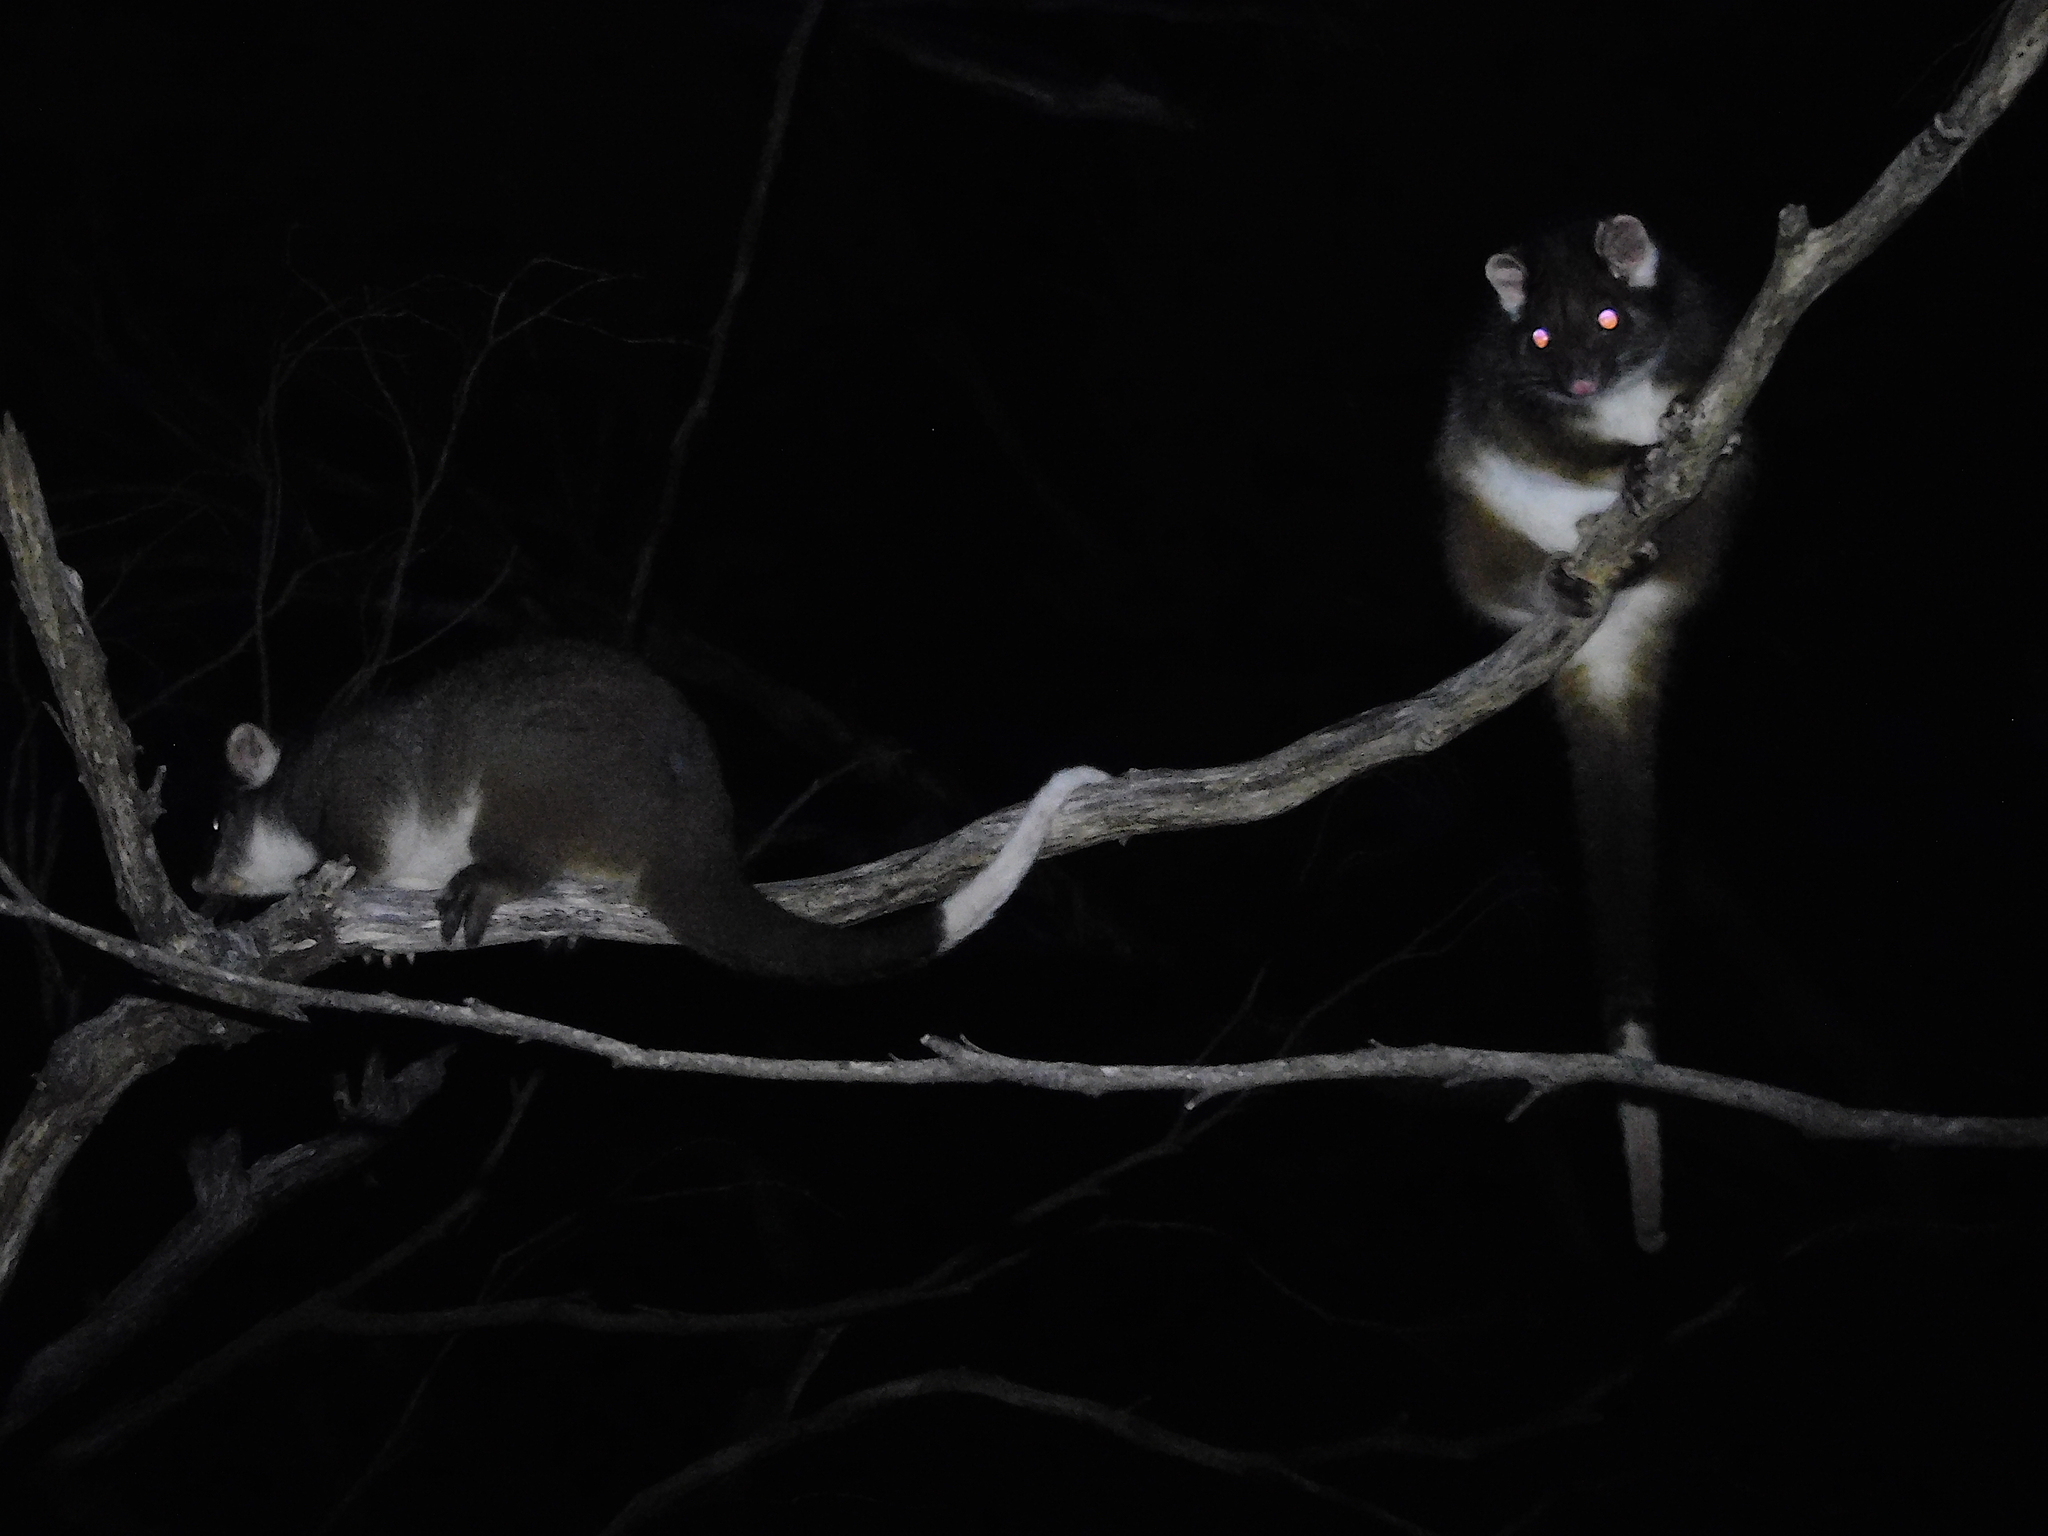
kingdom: Animalia
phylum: Chordata
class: Mammalia
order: Diprotodontia
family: Pseudocheiridae
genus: Pseudocheirus
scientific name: Pseudocheirus peregrinus
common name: Common ringtail possum
